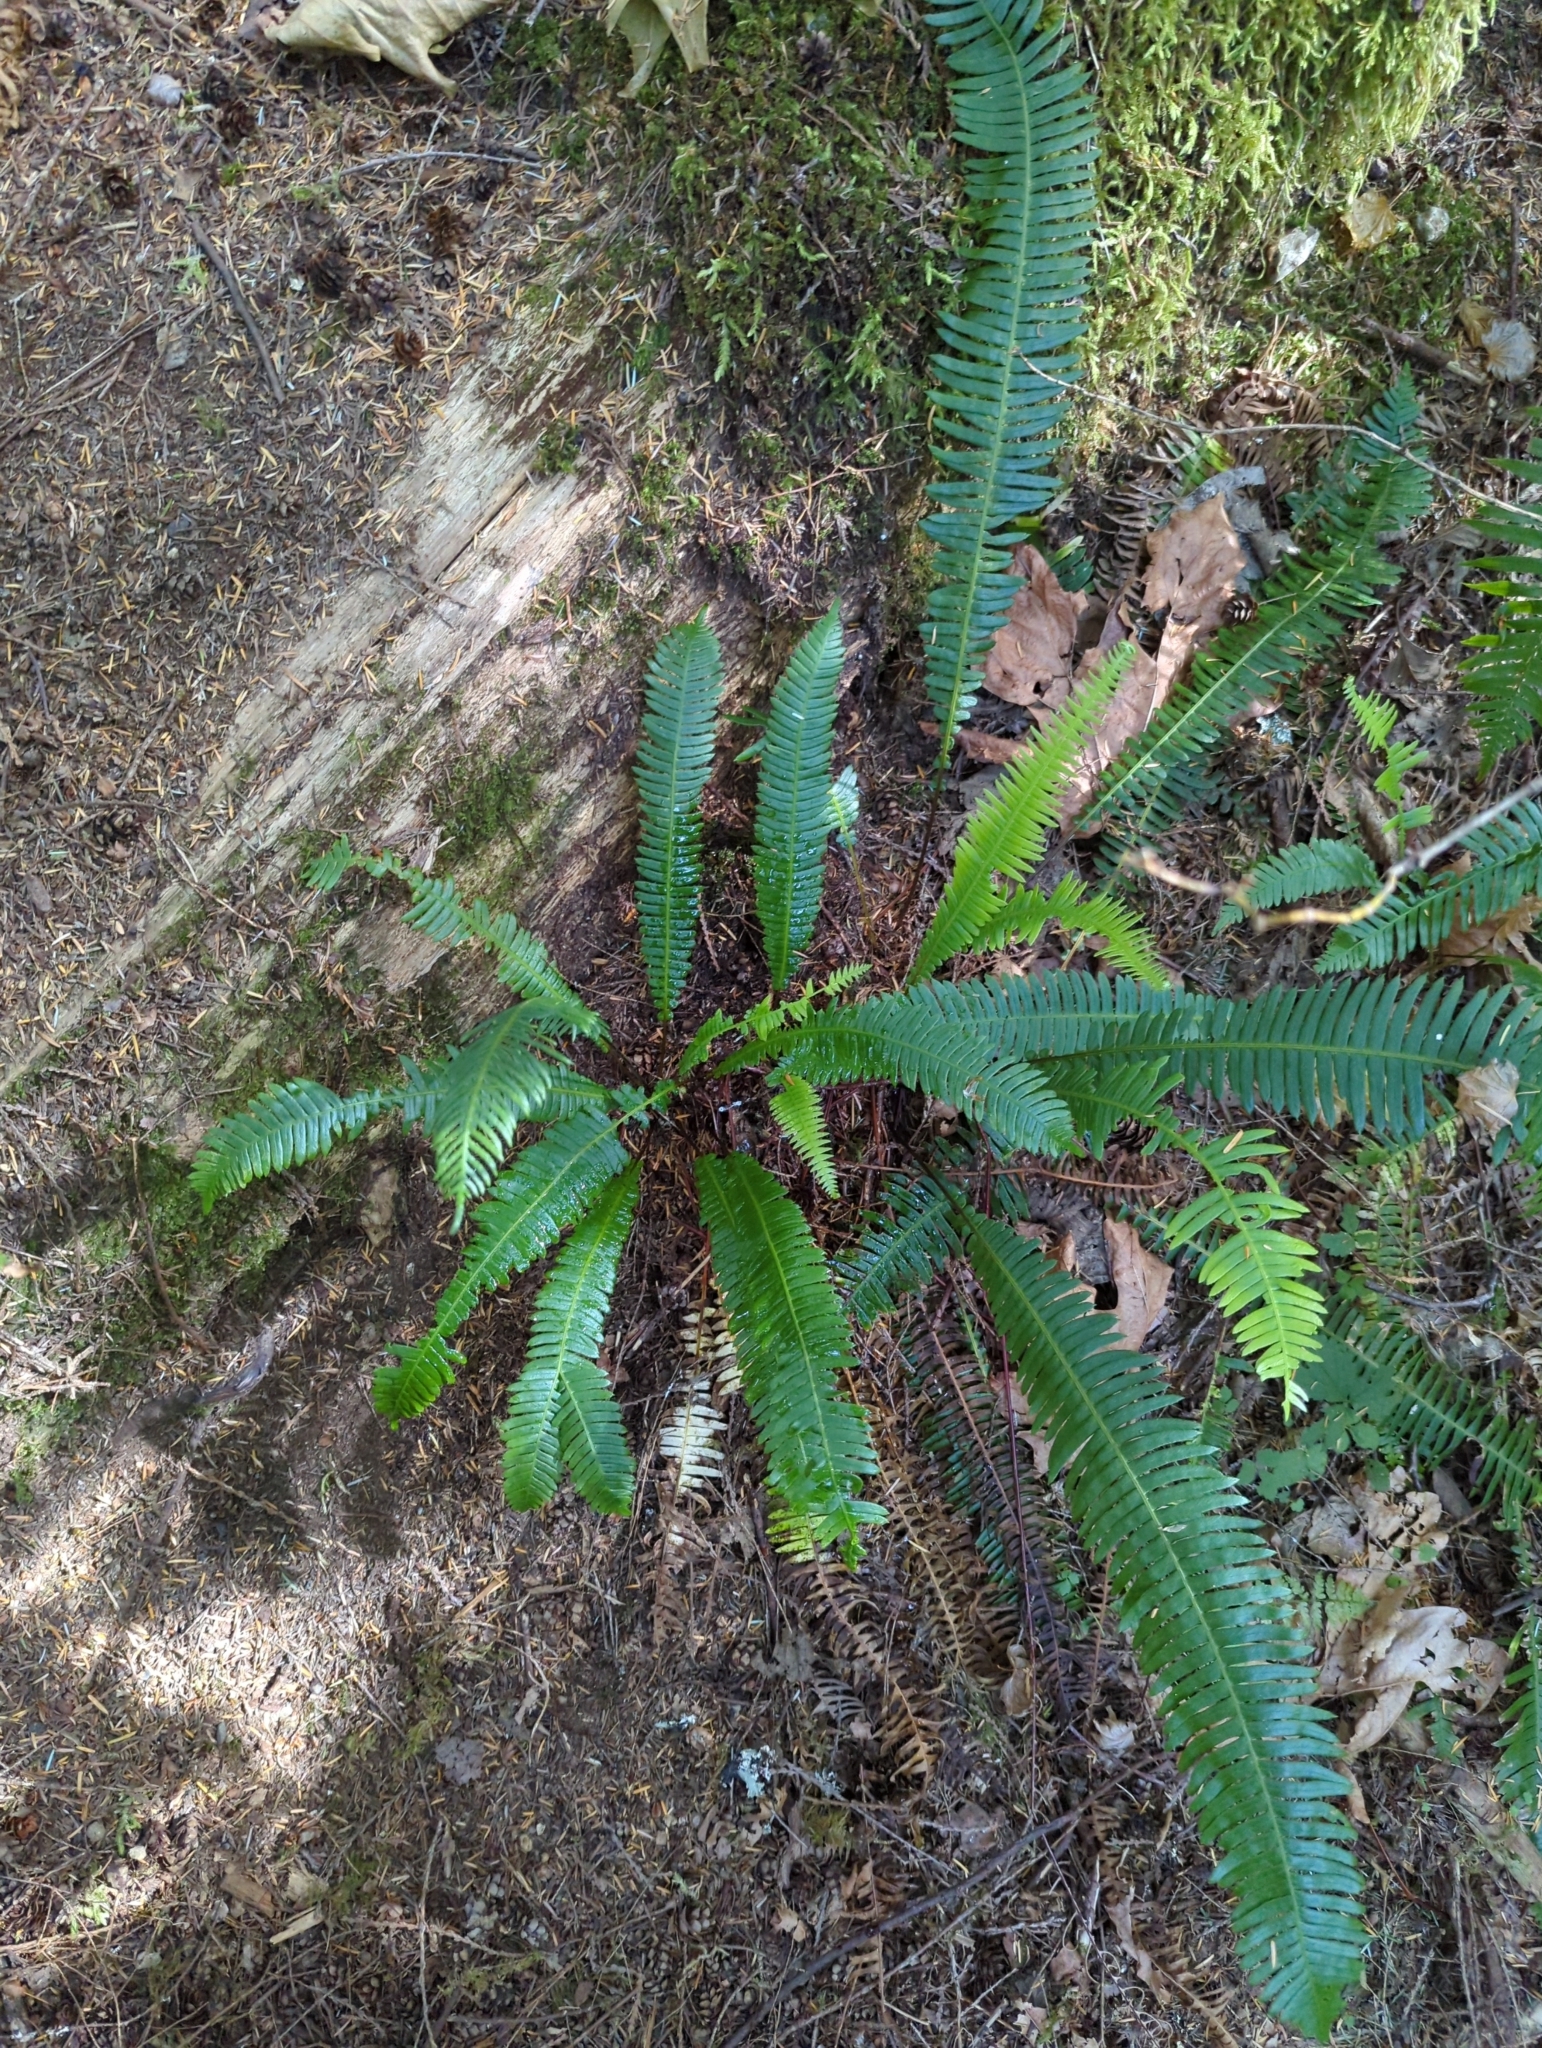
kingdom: Plantae
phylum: Tracheophyta
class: Polypodiopsida
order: Polypodiales
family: Blechnaceae
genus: Struthiopteris
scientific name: Struthiopteris spicant
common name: Deer fern
